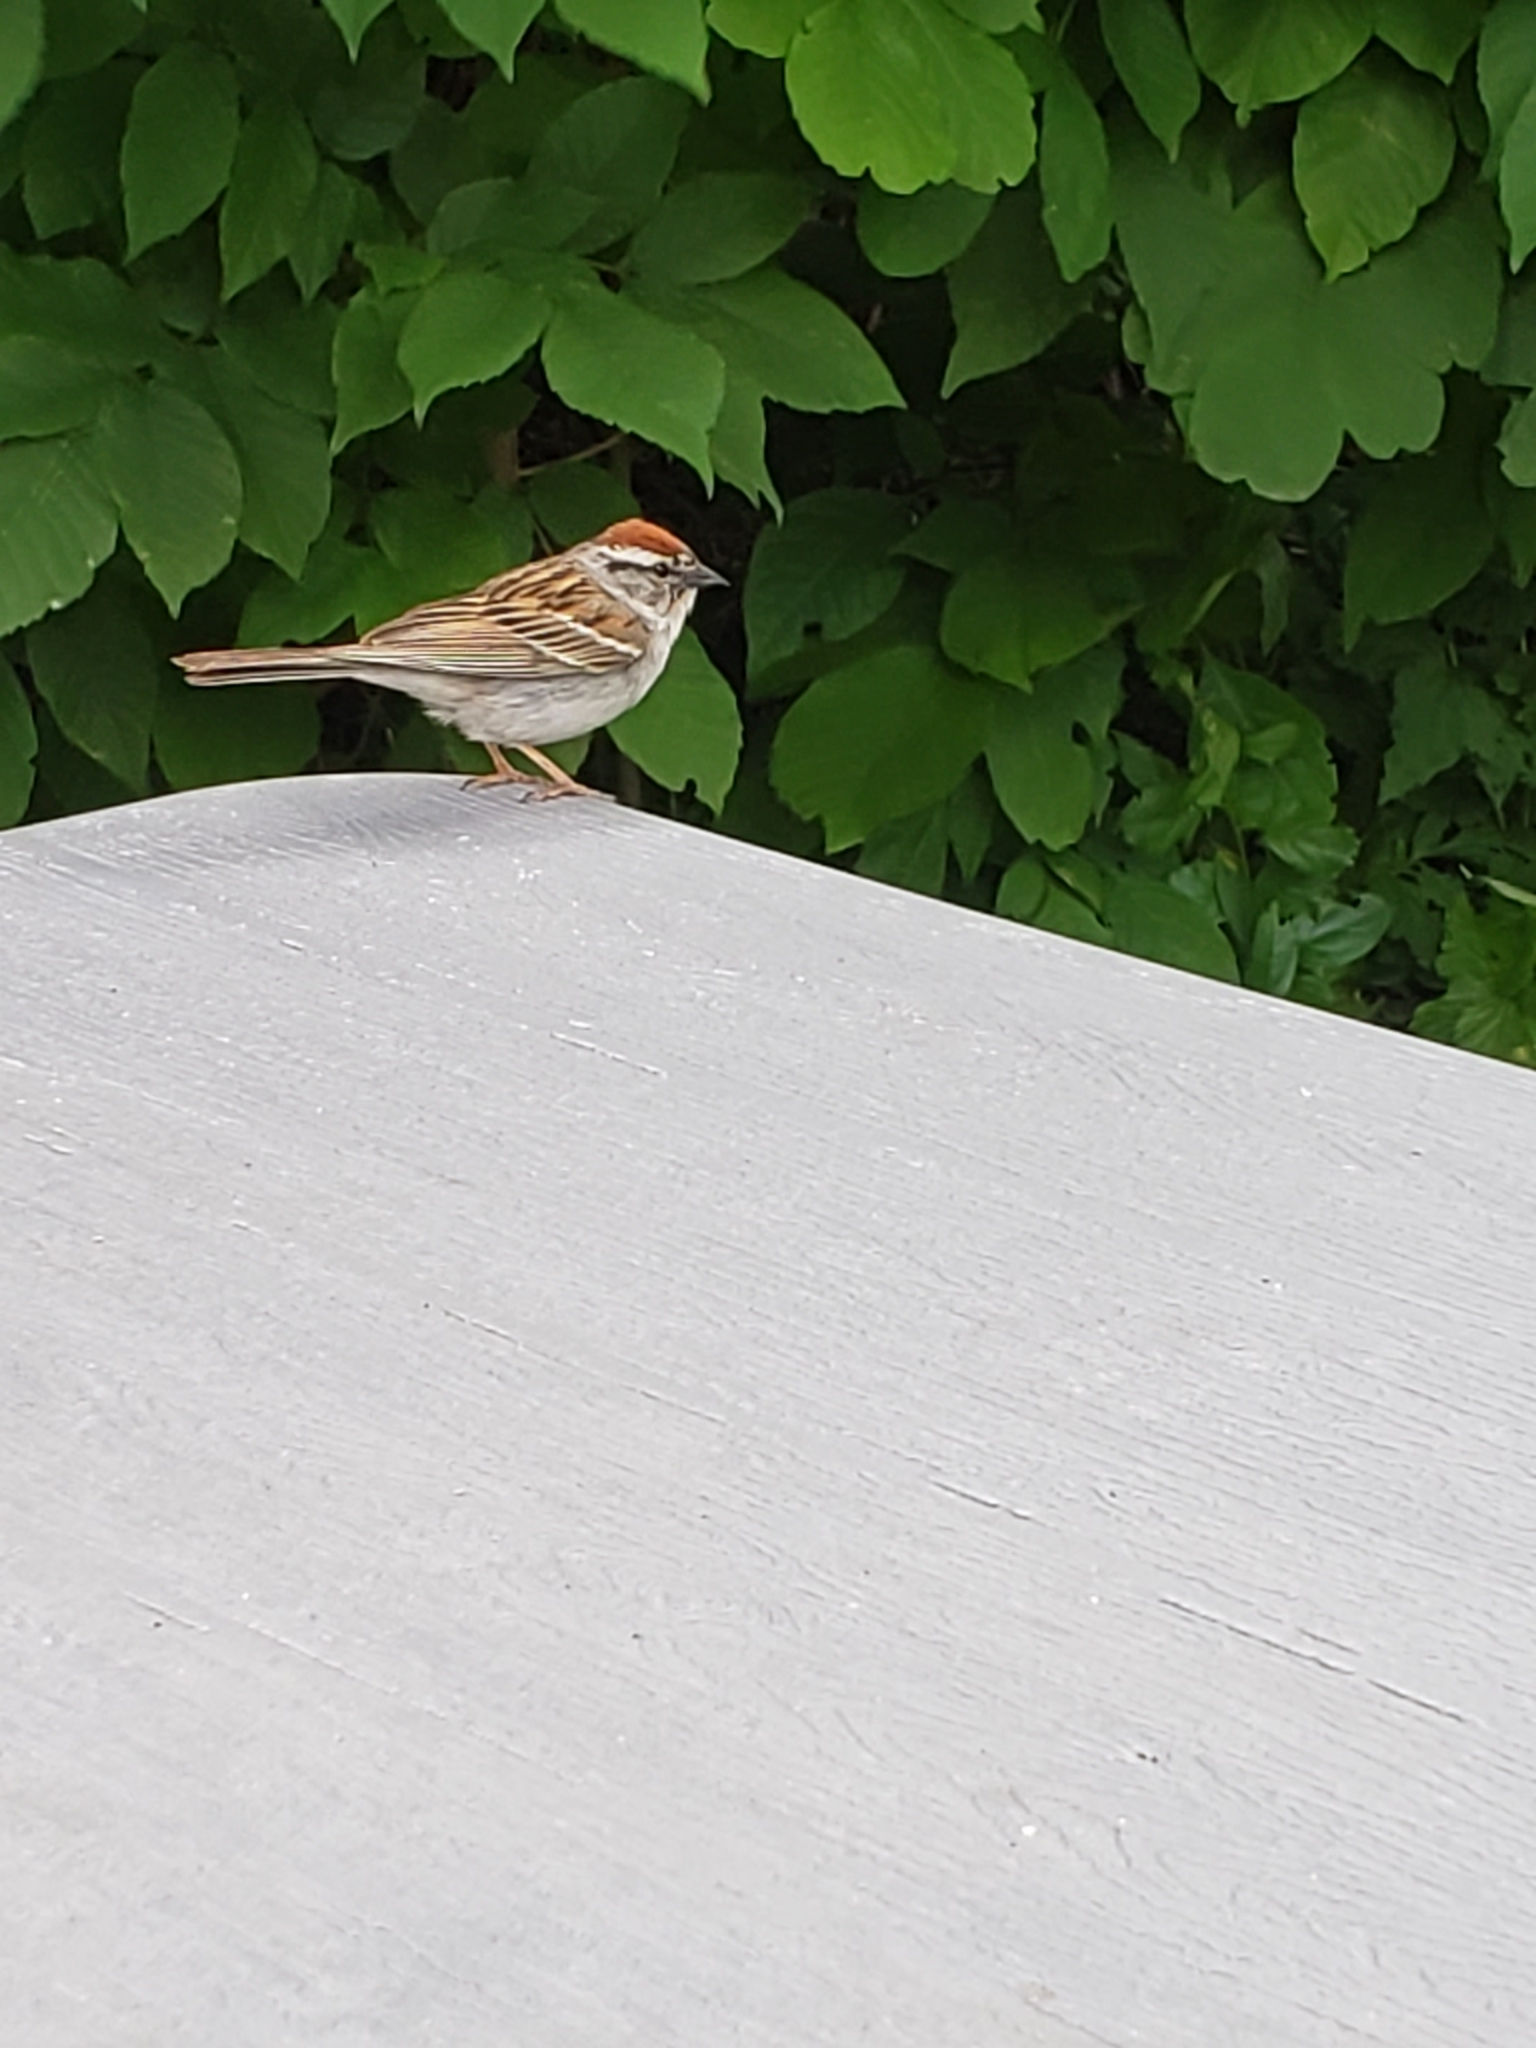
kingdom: Animalia
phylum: Chordata
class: Aves
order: Passeriformes
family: Passerellidae
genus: Spizella
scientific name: Spizella passerina
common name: Chipping sparrow
